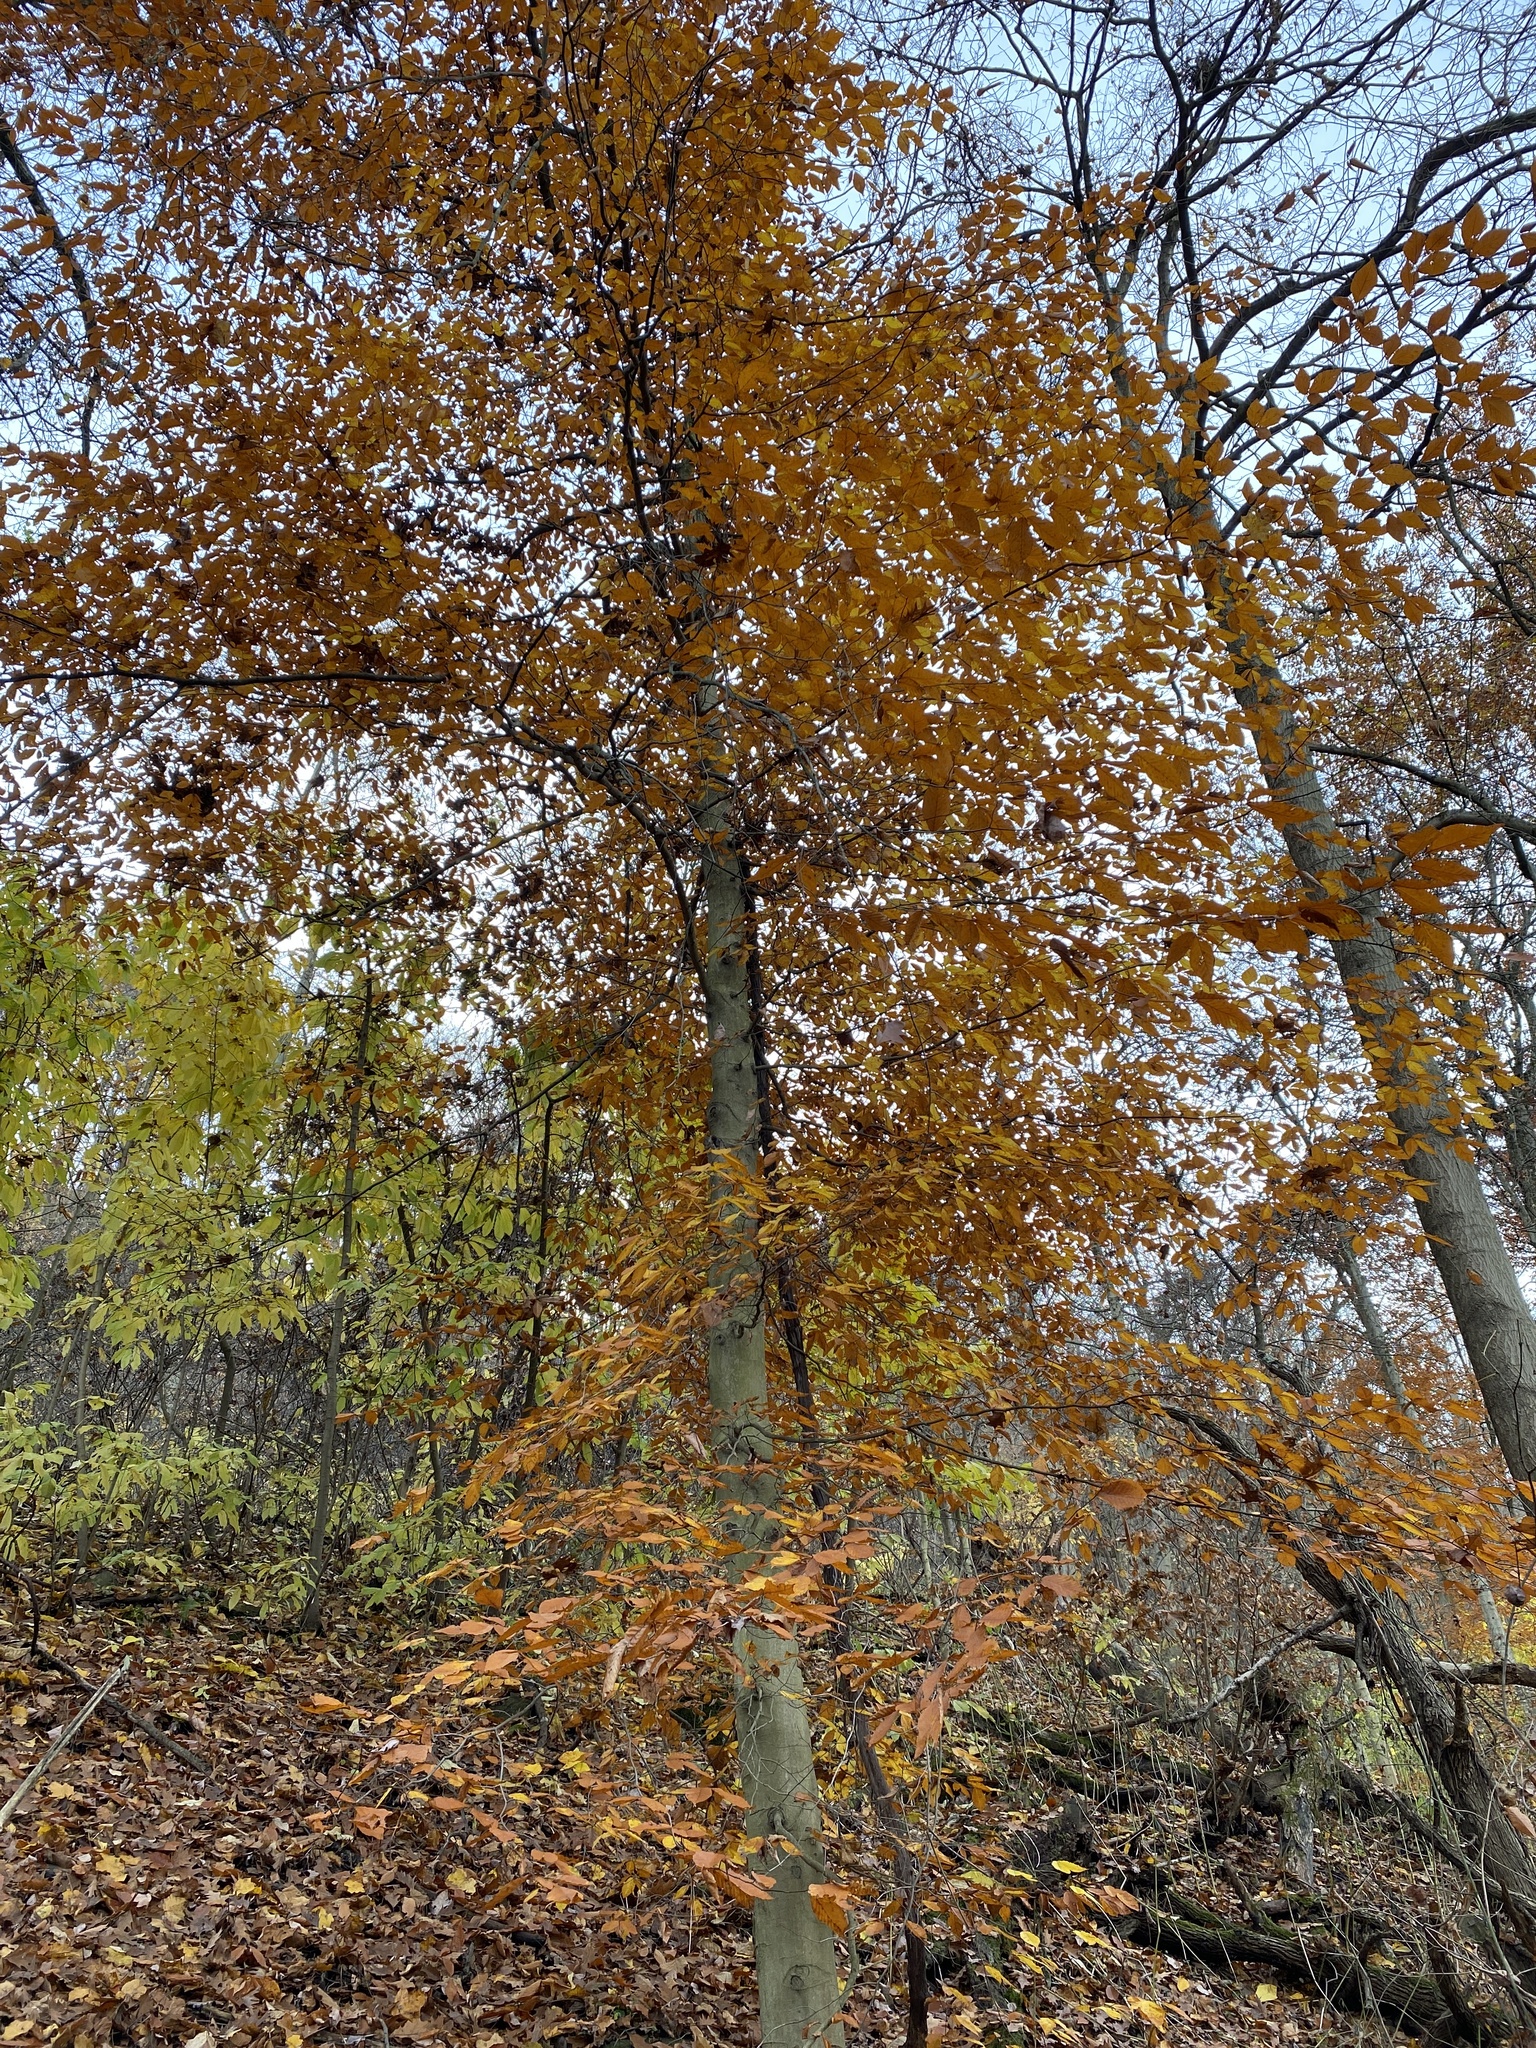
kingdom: Plantae
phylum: Tracheophyta
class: Magnoliopsida
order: Fagales
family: Fagaceae
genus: Fagus
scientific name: Fagus grandifolia
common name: American beech
